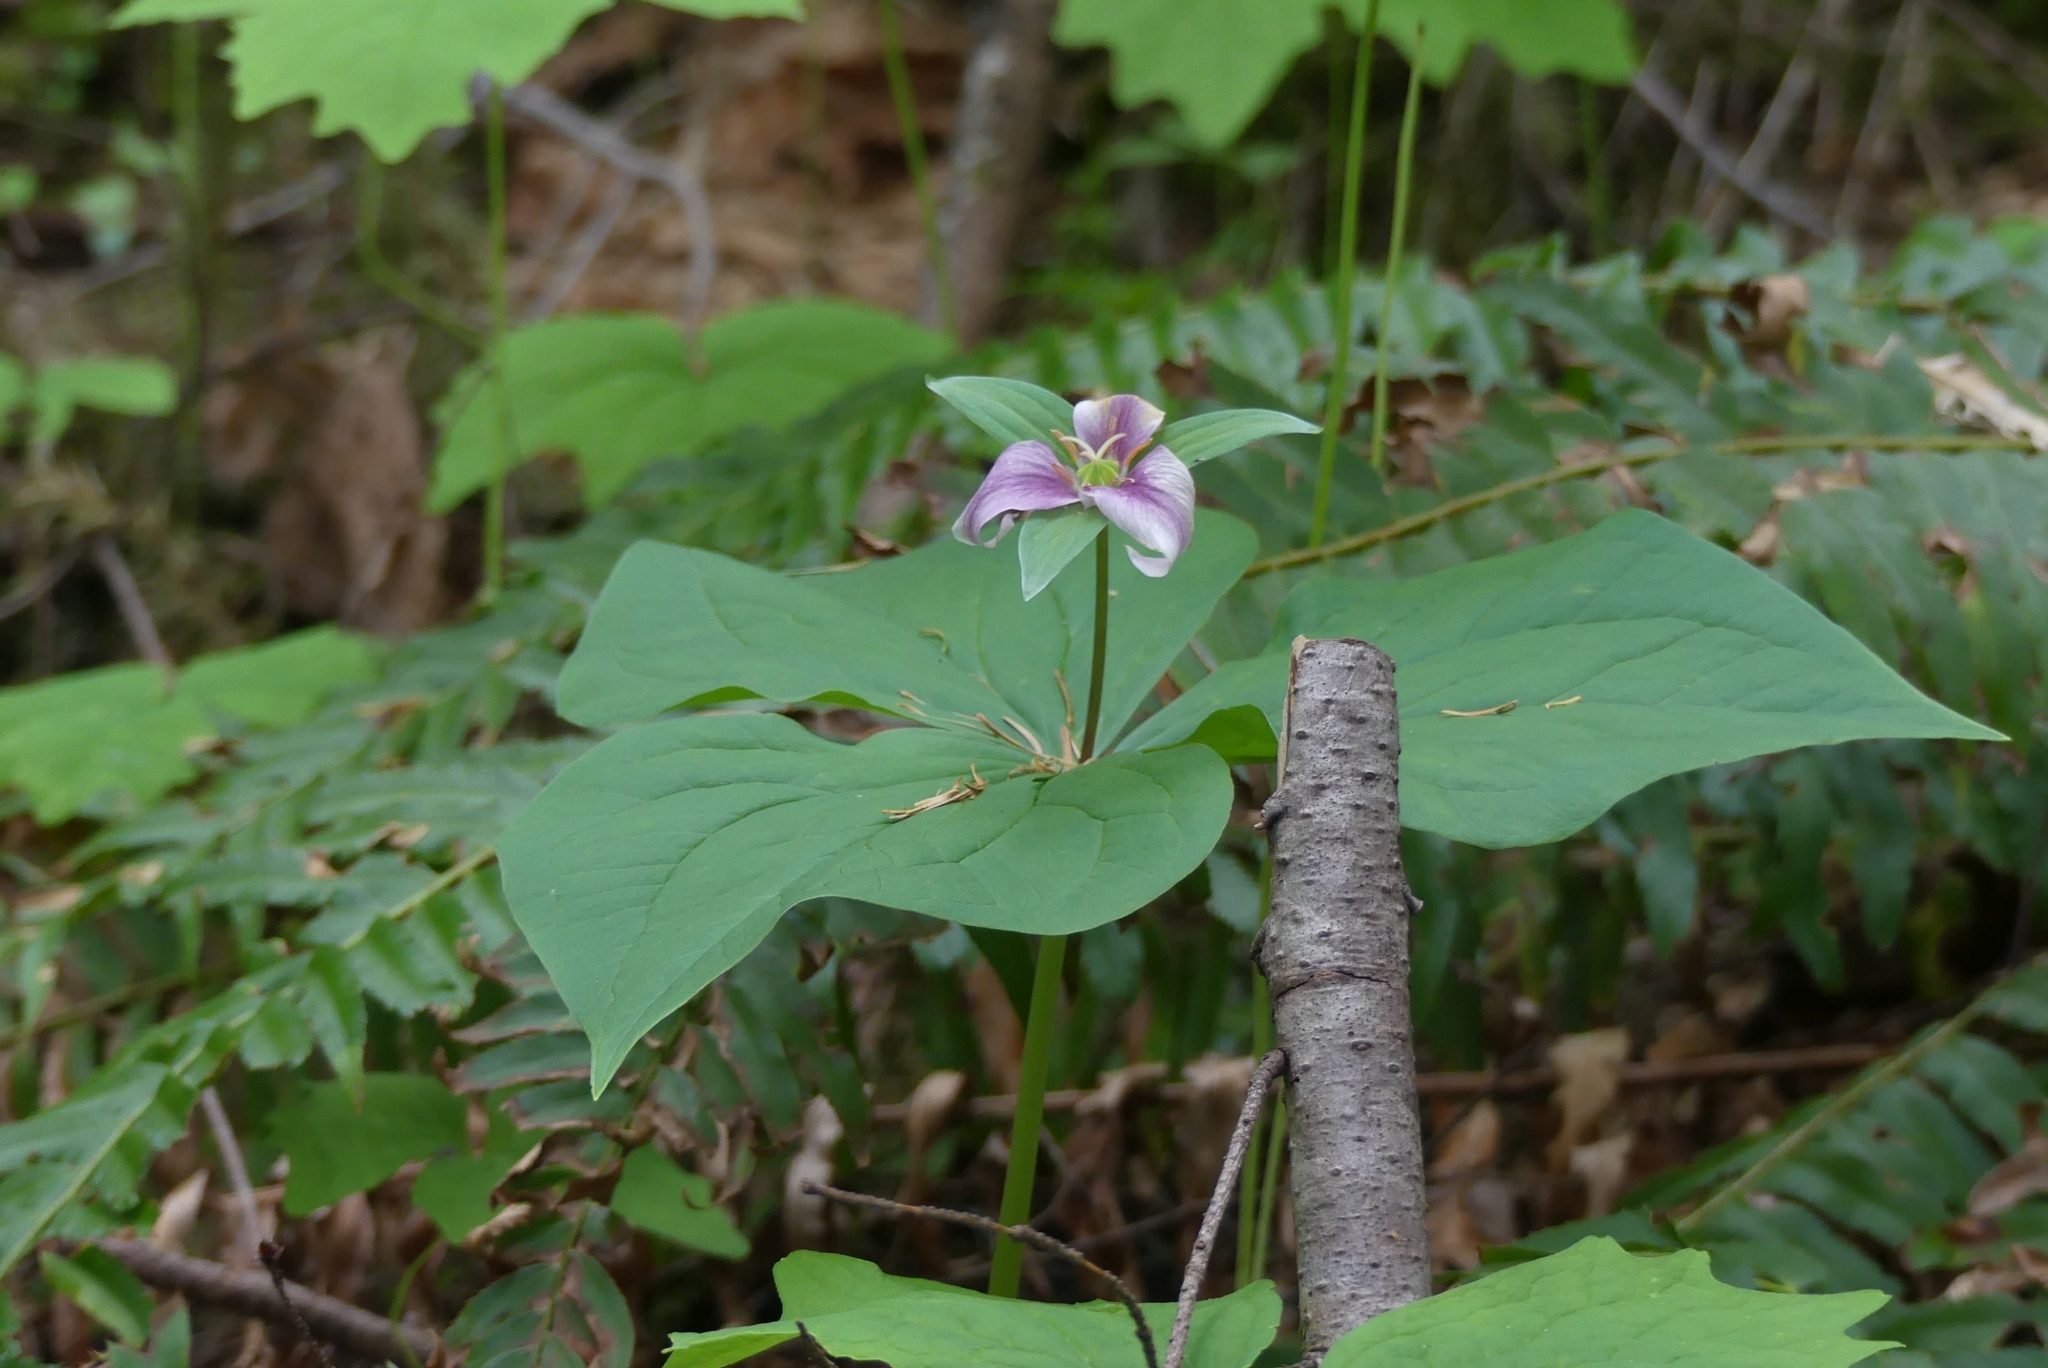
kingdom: Plantae
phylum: Tracheophyta
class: Liliopsida
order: Liliales
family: Melanthiaceae
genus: Trillium
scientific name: Trillium ovatum
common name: Pacific trillium
